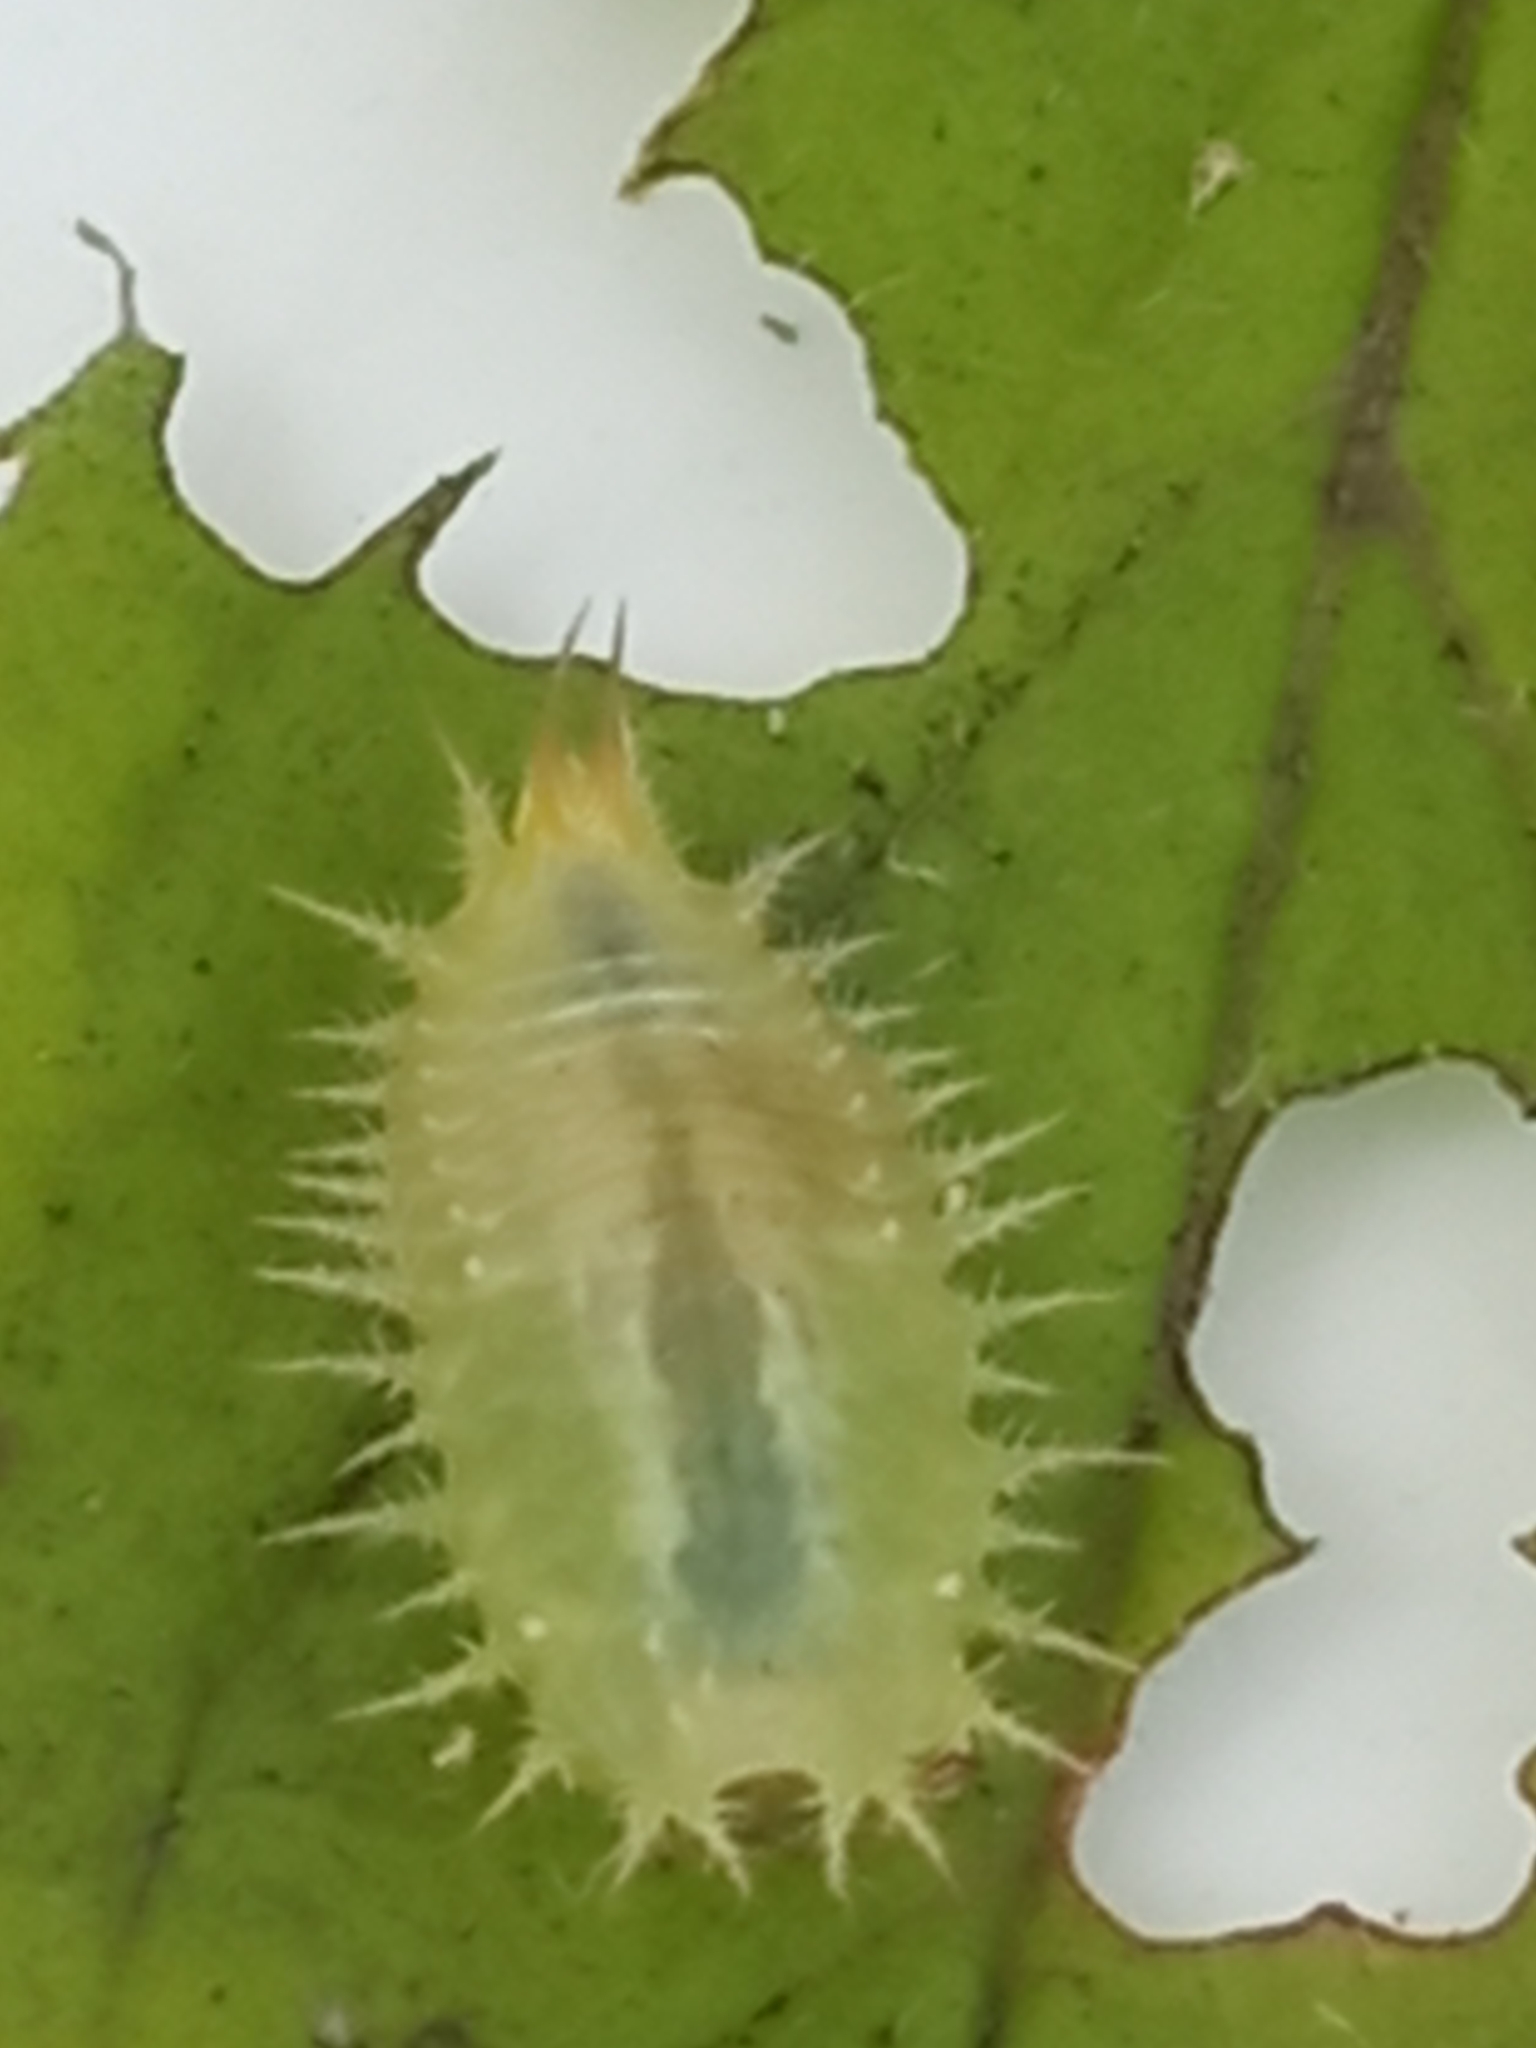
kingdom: Animalia
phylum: Arthropoda
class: Insecta
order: Coleoptera
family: Chrysomelidae
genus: Cassida
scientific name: Cassida viridis
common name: Green tortoise beetle
